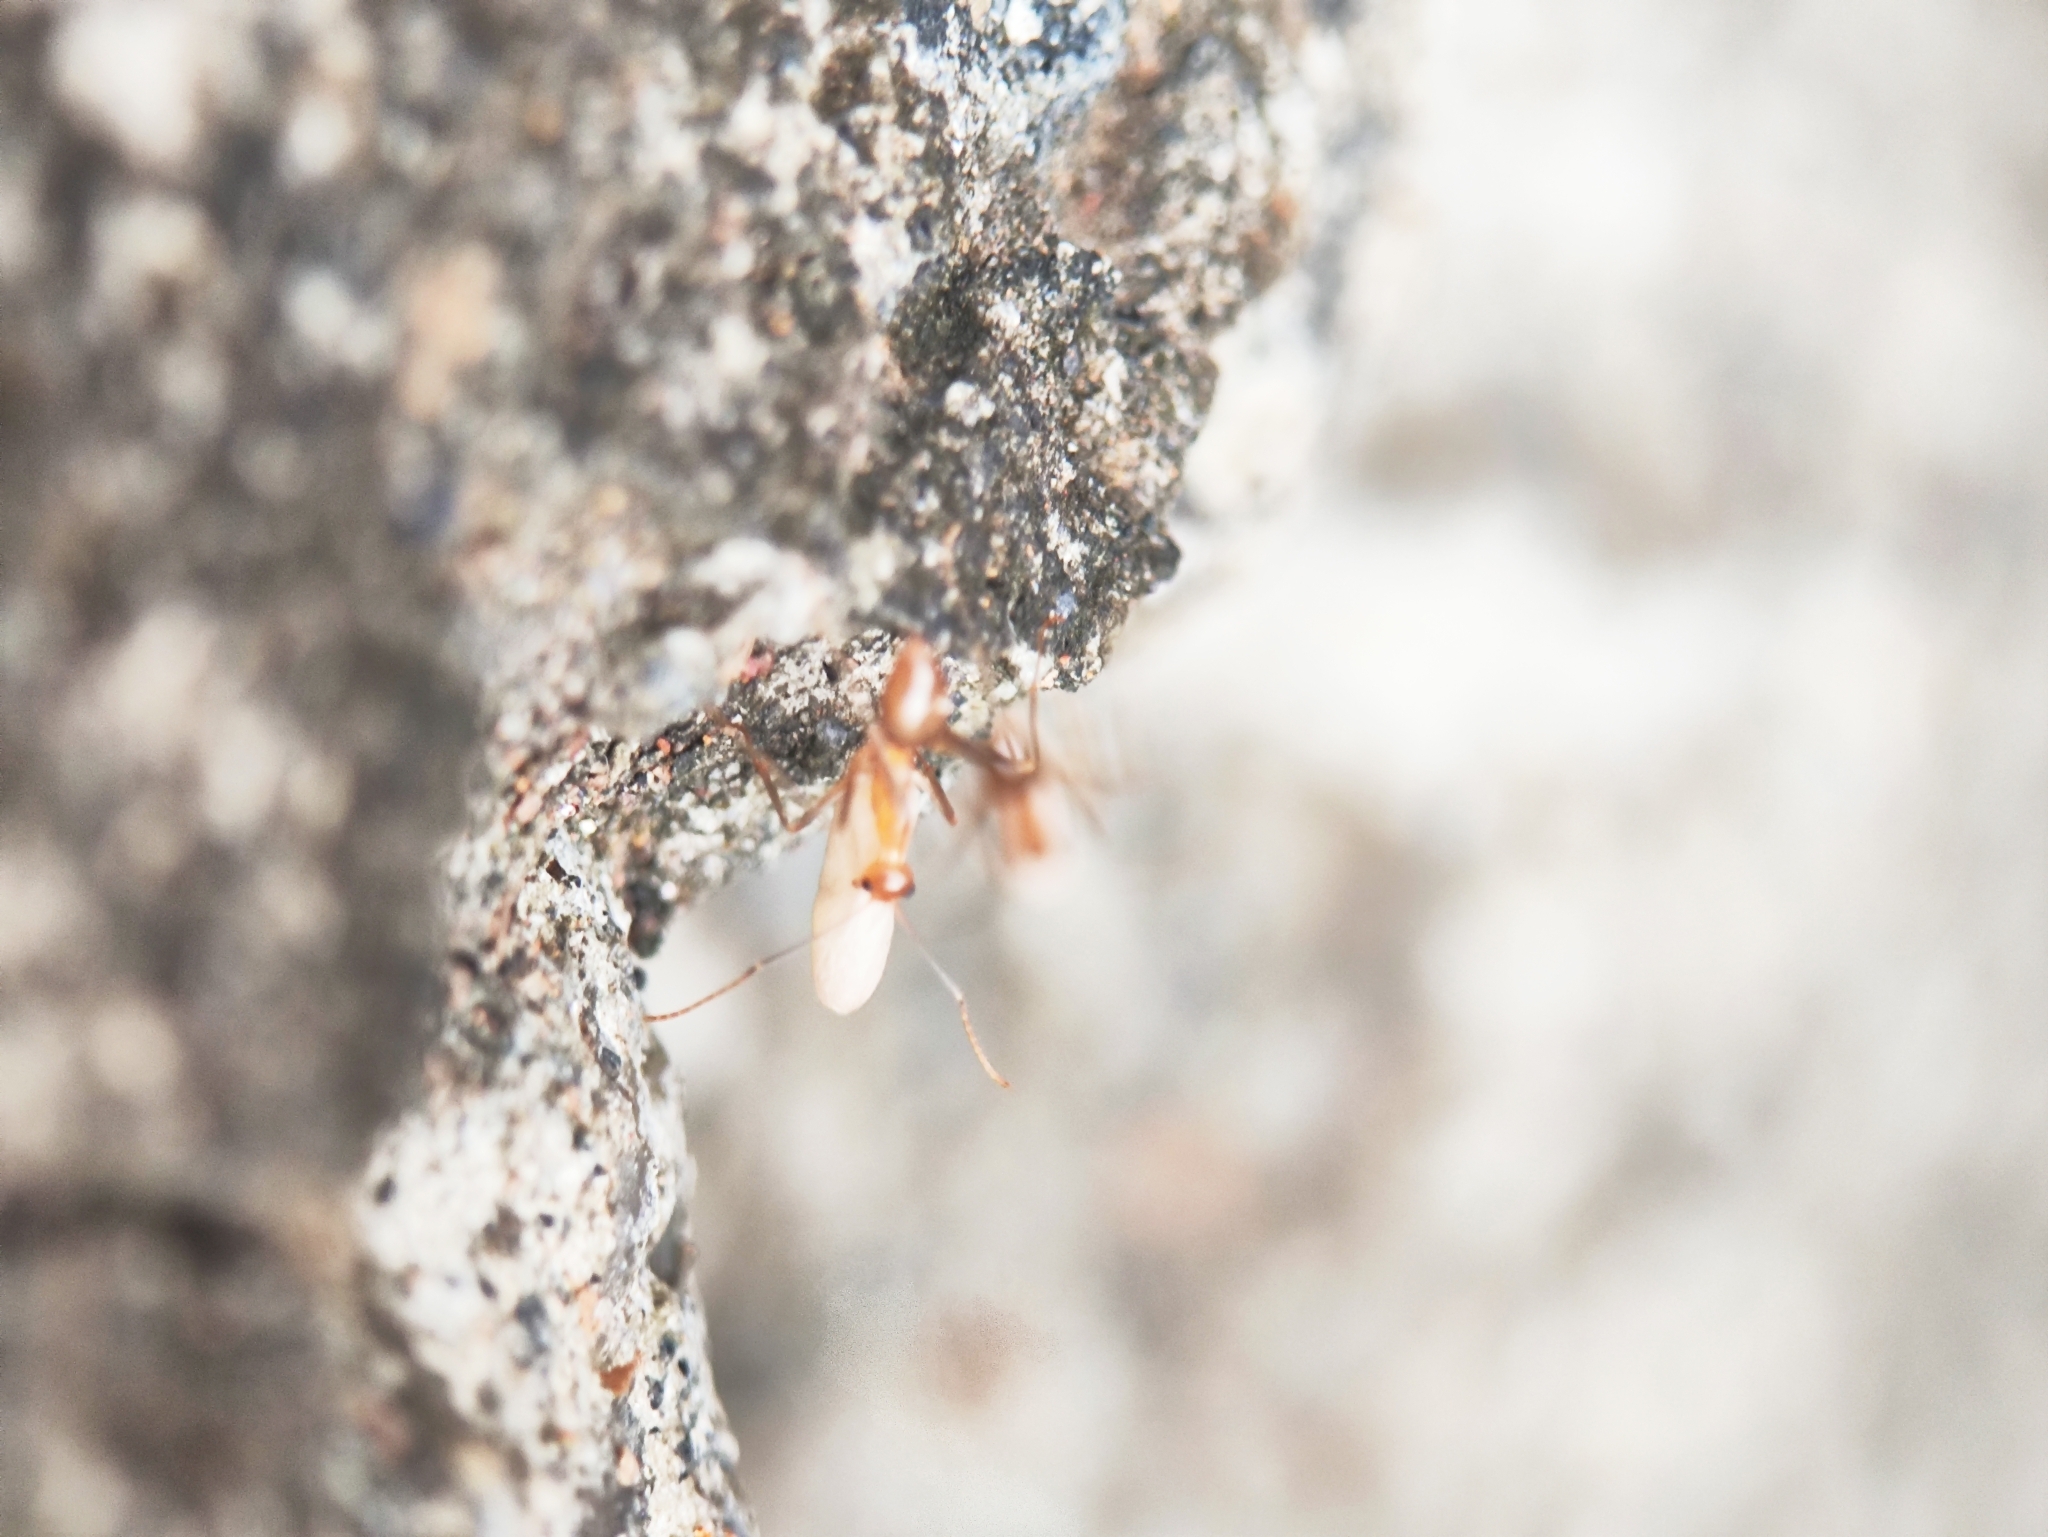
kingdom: Animalia
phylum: Arthropoda
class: Insecta
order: Hymenoptera
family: Formicidae
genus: Anoplolepis
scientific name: Anoplolepis gracilipes
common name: Ant
